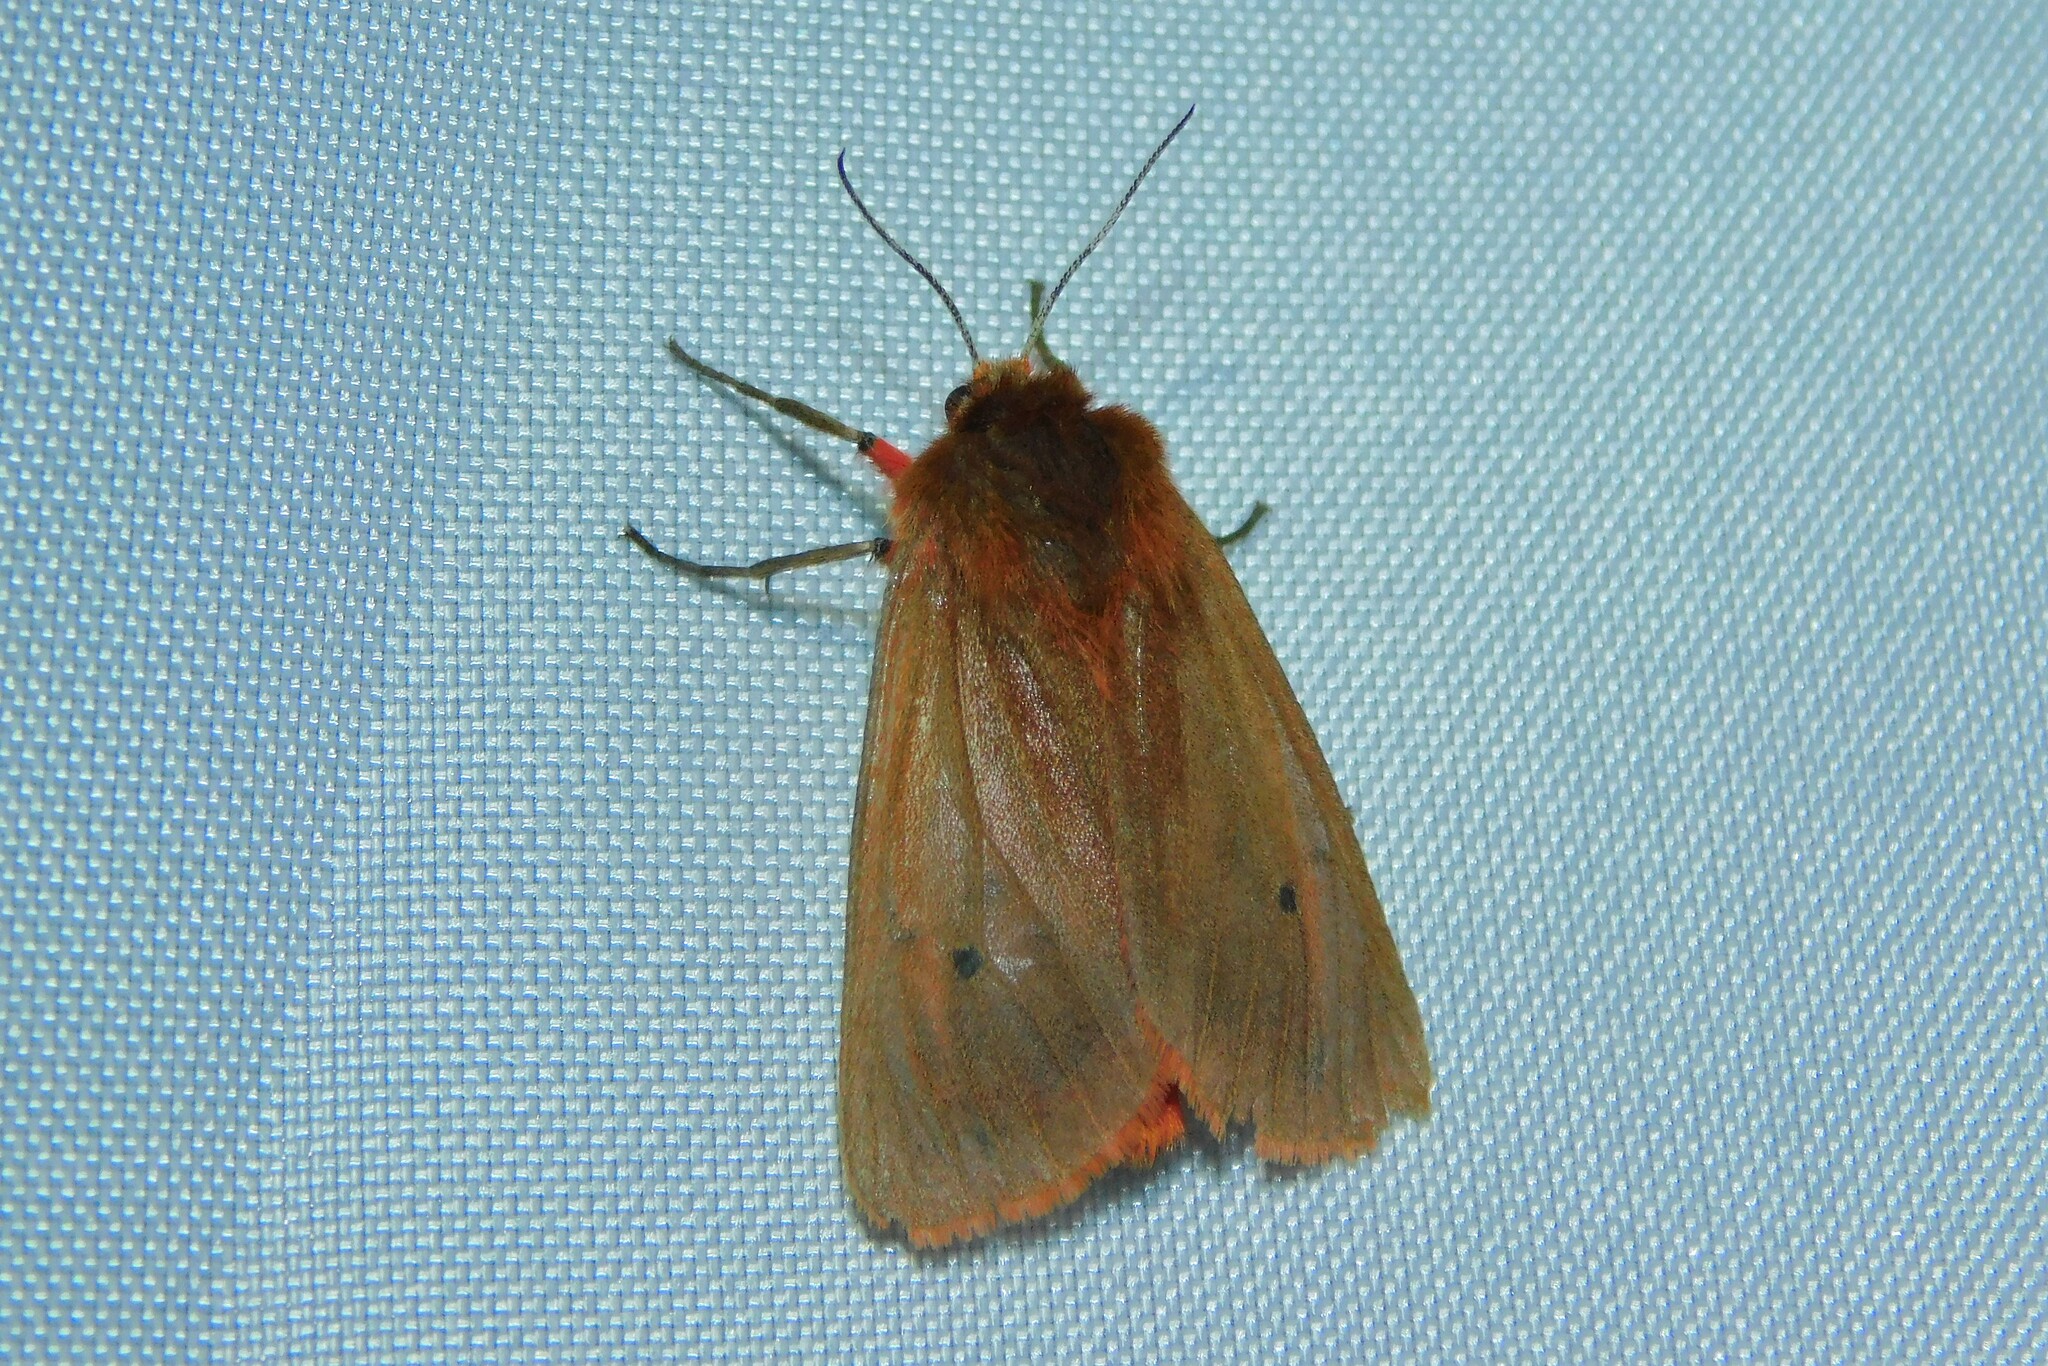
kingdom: Animalia
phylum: Arthropoda
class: Insecta
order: Lepidoptera
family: Erebidae
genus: Phragmatobia
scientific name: Phragmatobia fuliginosa
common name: Ruby tiger
